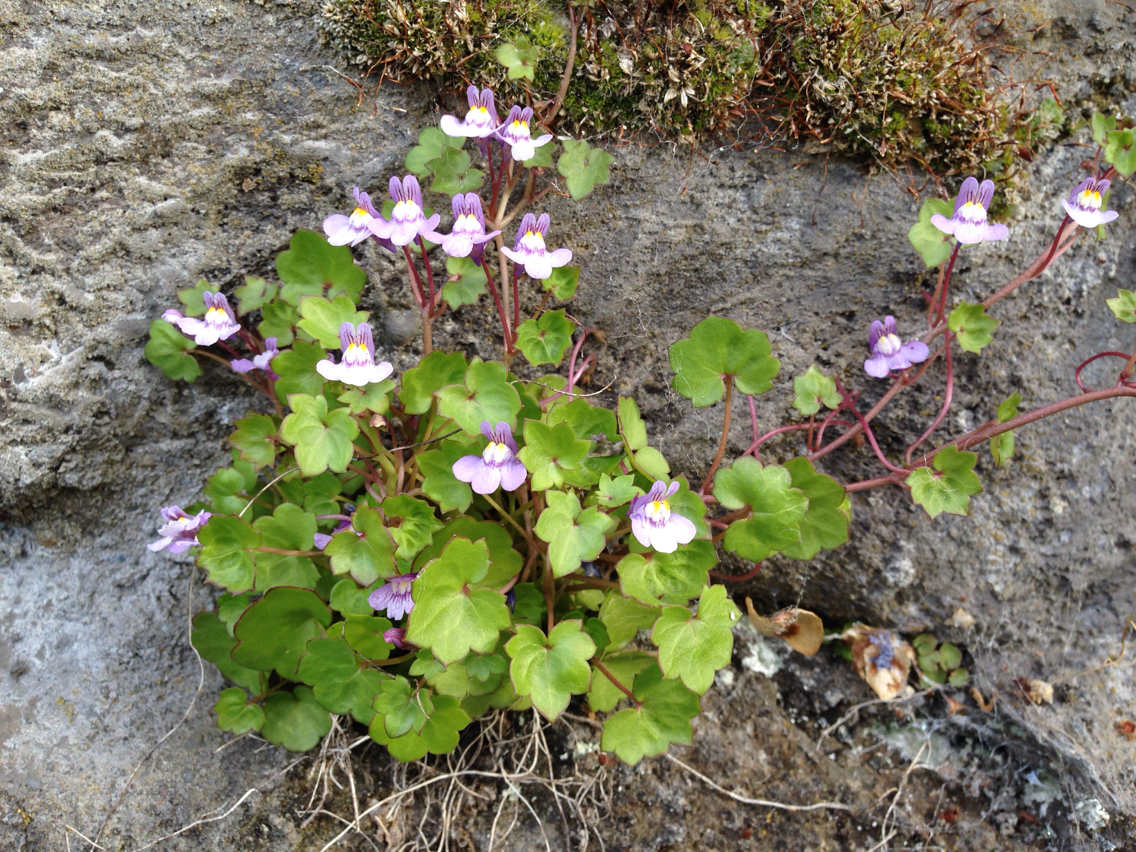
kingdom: Plantae
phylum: Tracheophyta
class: Magnoliopsida
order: Lamiales
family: Plantaginaceae
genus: Cymbalaria
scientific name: Cymbalaria muralis
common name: Ivy-leaved toadflax
